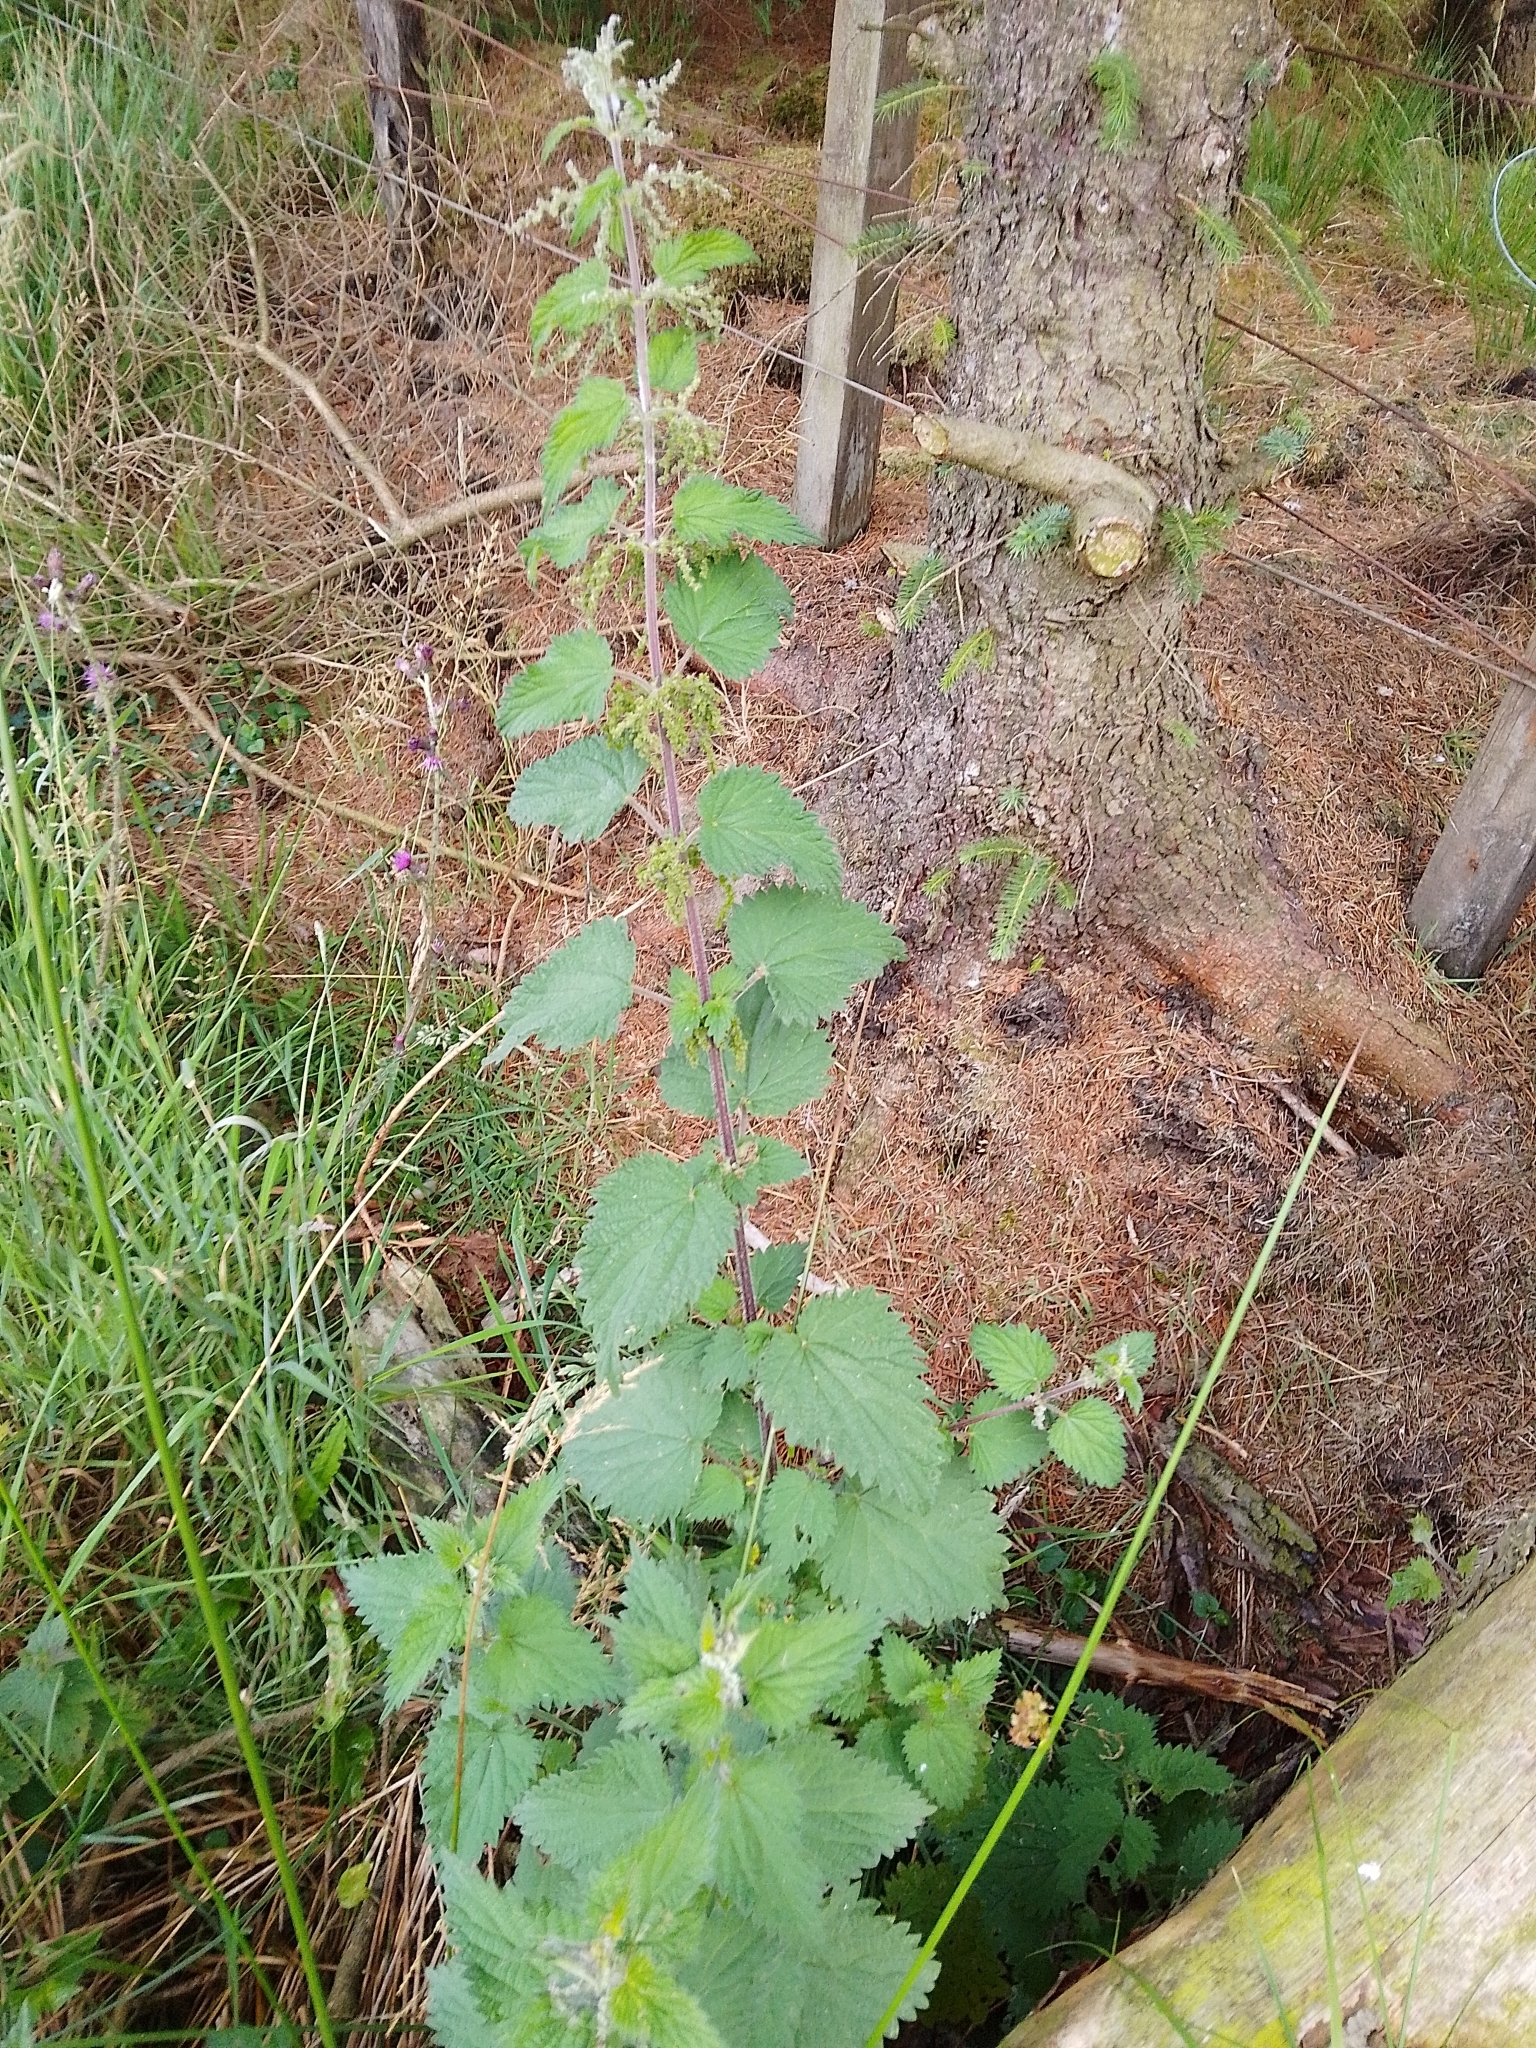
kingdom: Plantae
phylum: Tracheophyta
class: Magnoliopsida
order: Rosales
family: Urticaceae
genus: Urtica
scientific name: Urtica dioica
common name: Common nettle
